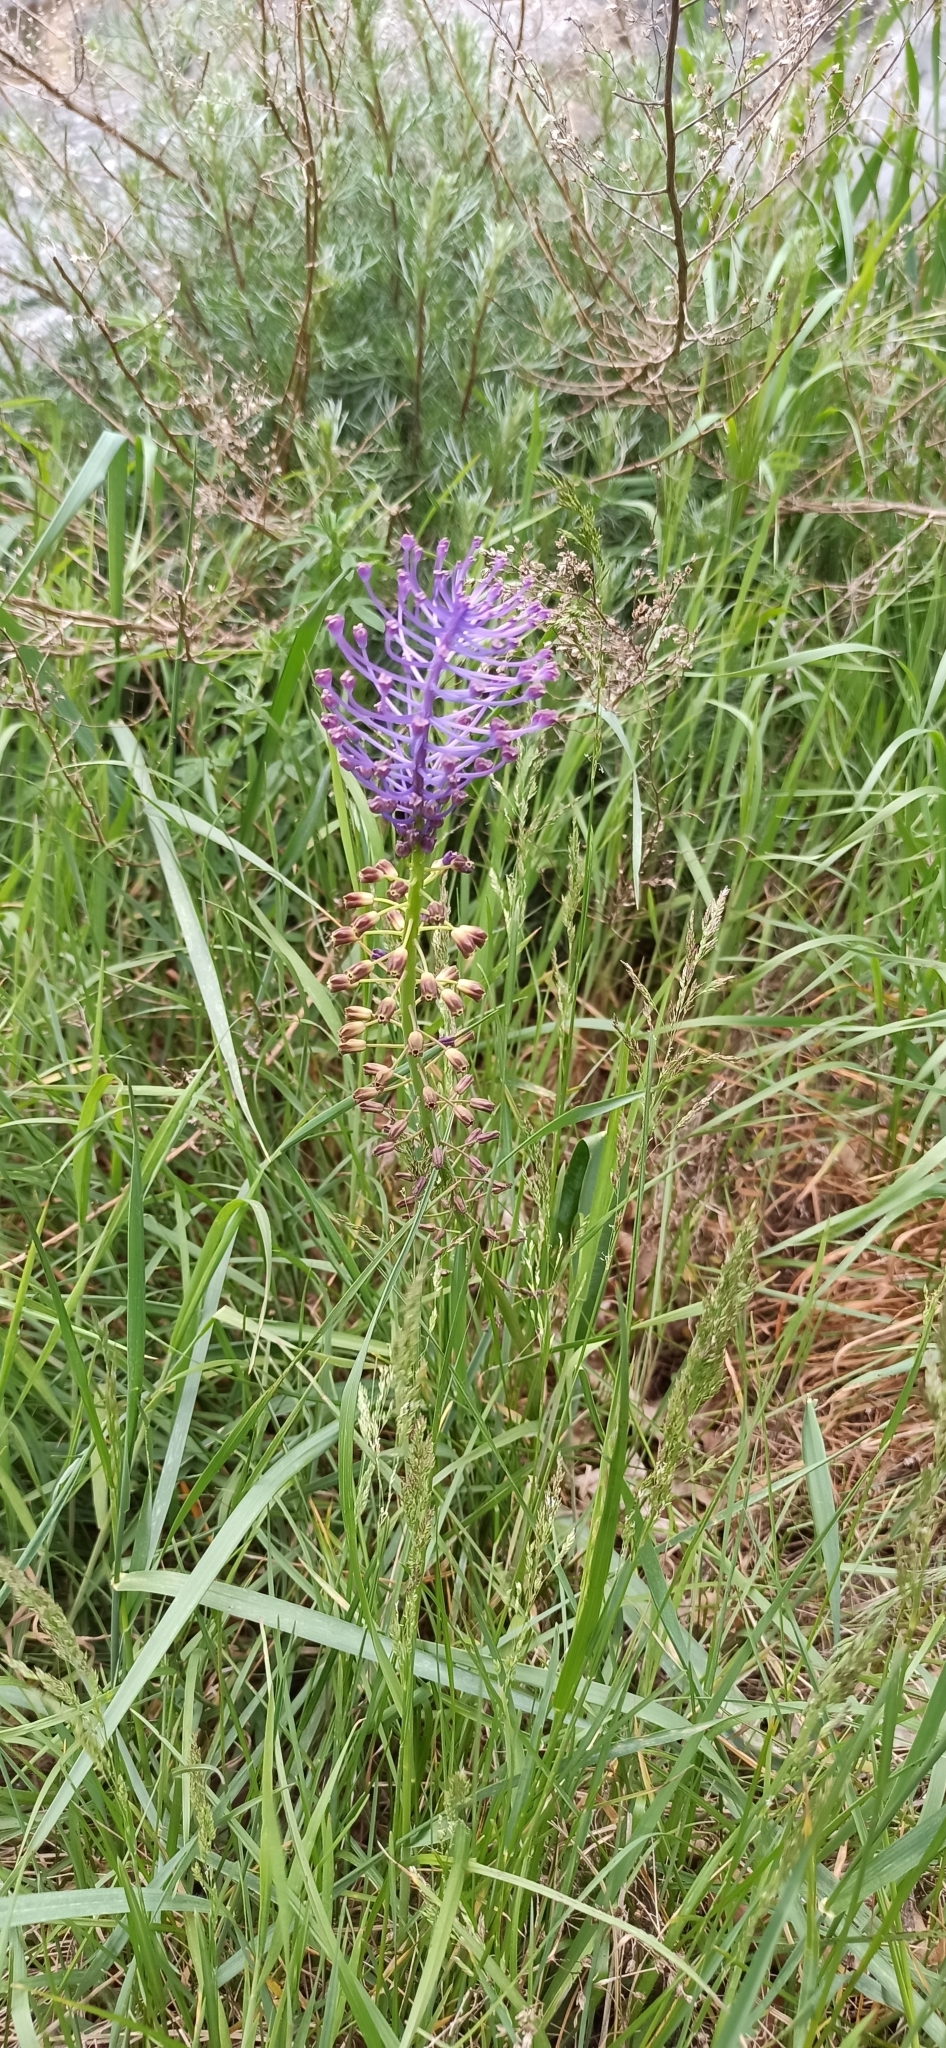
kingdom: Plantae
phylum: Tracheophyta
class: Liliopsida
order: Asparagales
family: Asparagaceae
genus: Muscari
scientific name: Muscari comosum
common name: Tassel hyacinth
